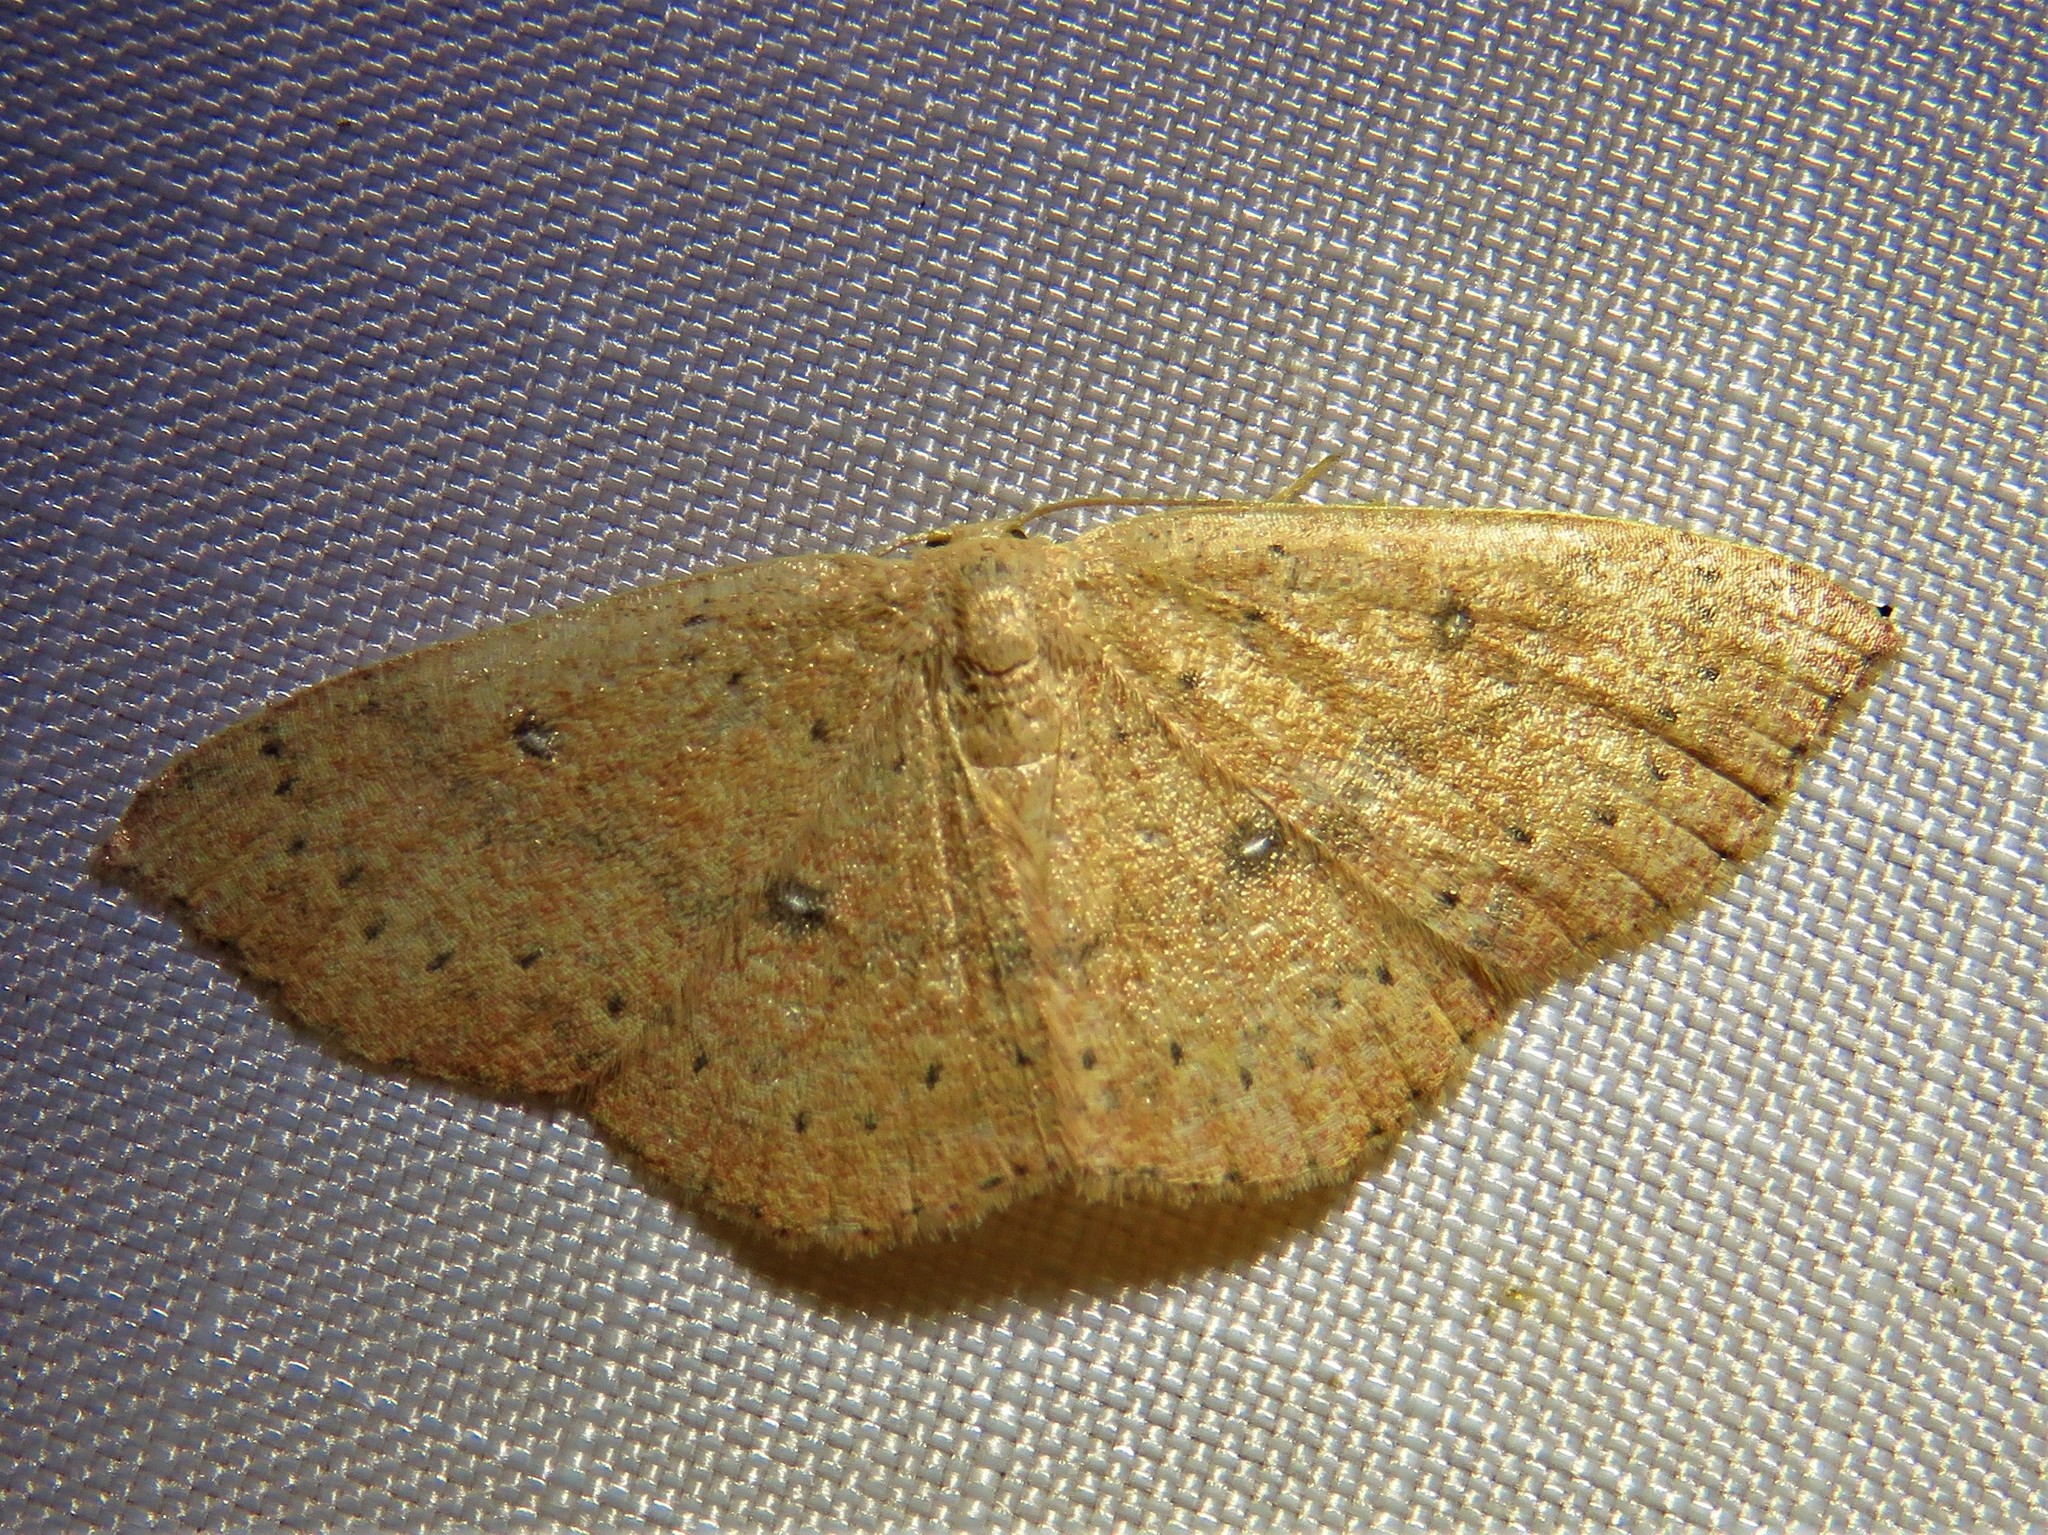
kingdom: Animalia
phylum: Arthropoda
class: Insecta
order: Lepidoptera
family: Geometridae
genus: Cyclophora
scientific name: Cyclophora packardi
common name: Packard's wave
